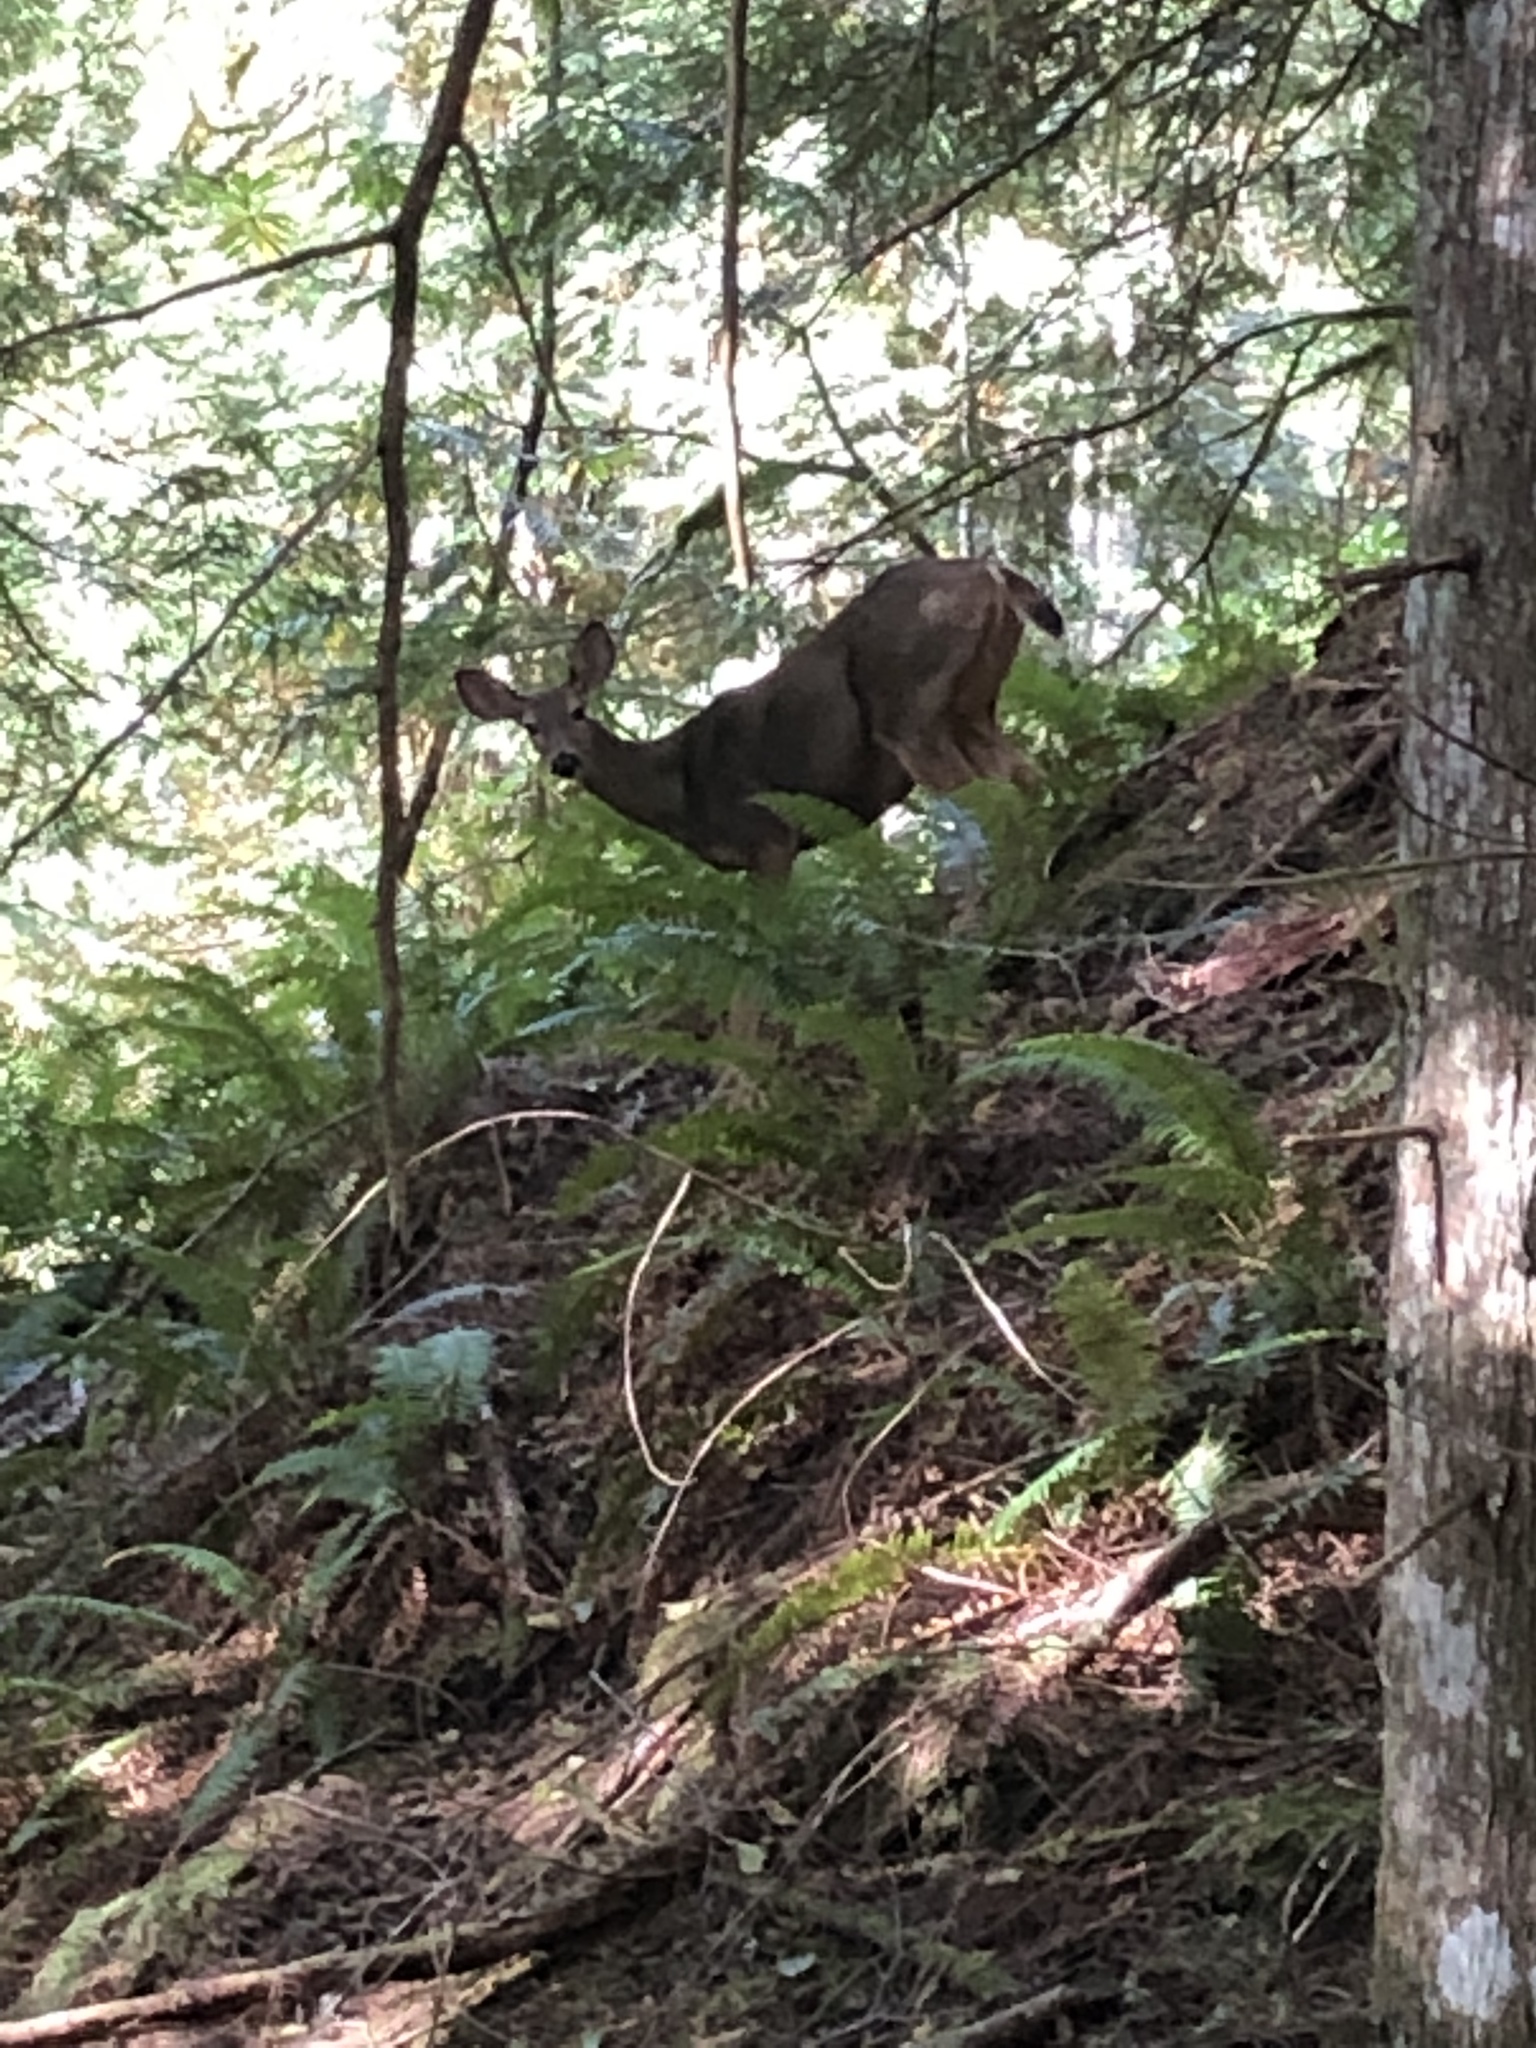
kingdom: Animalia
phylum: Chordata
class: Mammalia
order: Artiodactyla
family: Cervidae
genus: Odocoileus
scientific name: Odocoileus hemionus
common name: Mule deer
